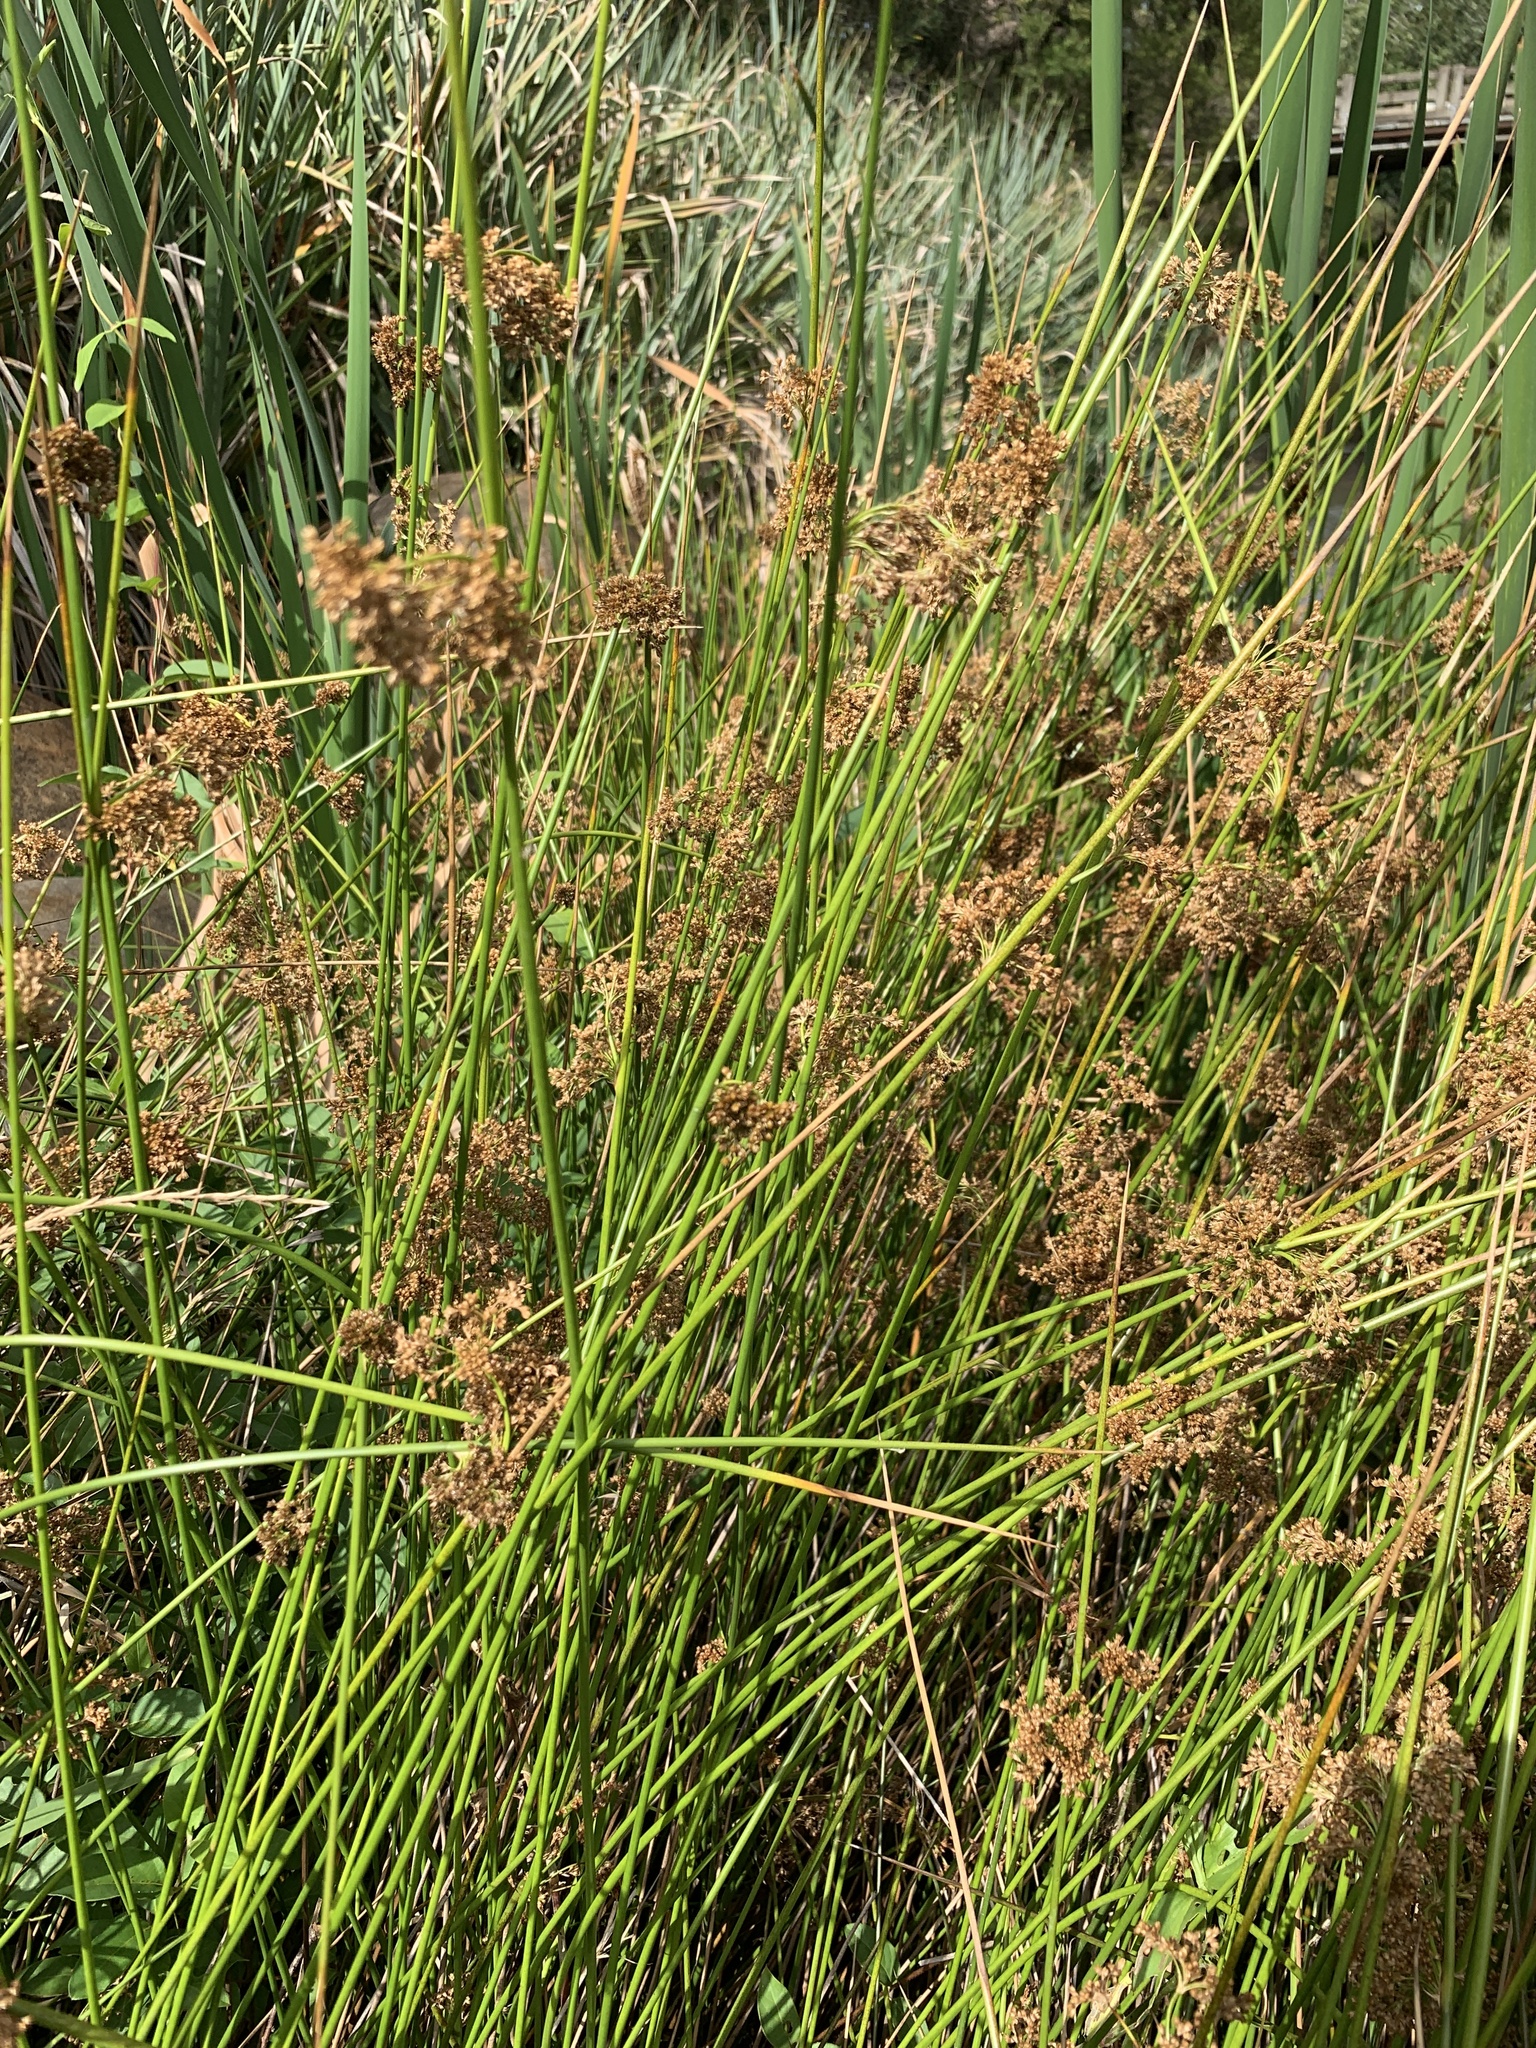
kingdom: Plantae
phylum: Tracheophyta
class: Liliopsida
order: Poales
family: Juncaceae
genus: Juncus
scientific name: Juncus effusus
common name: Soft rush
